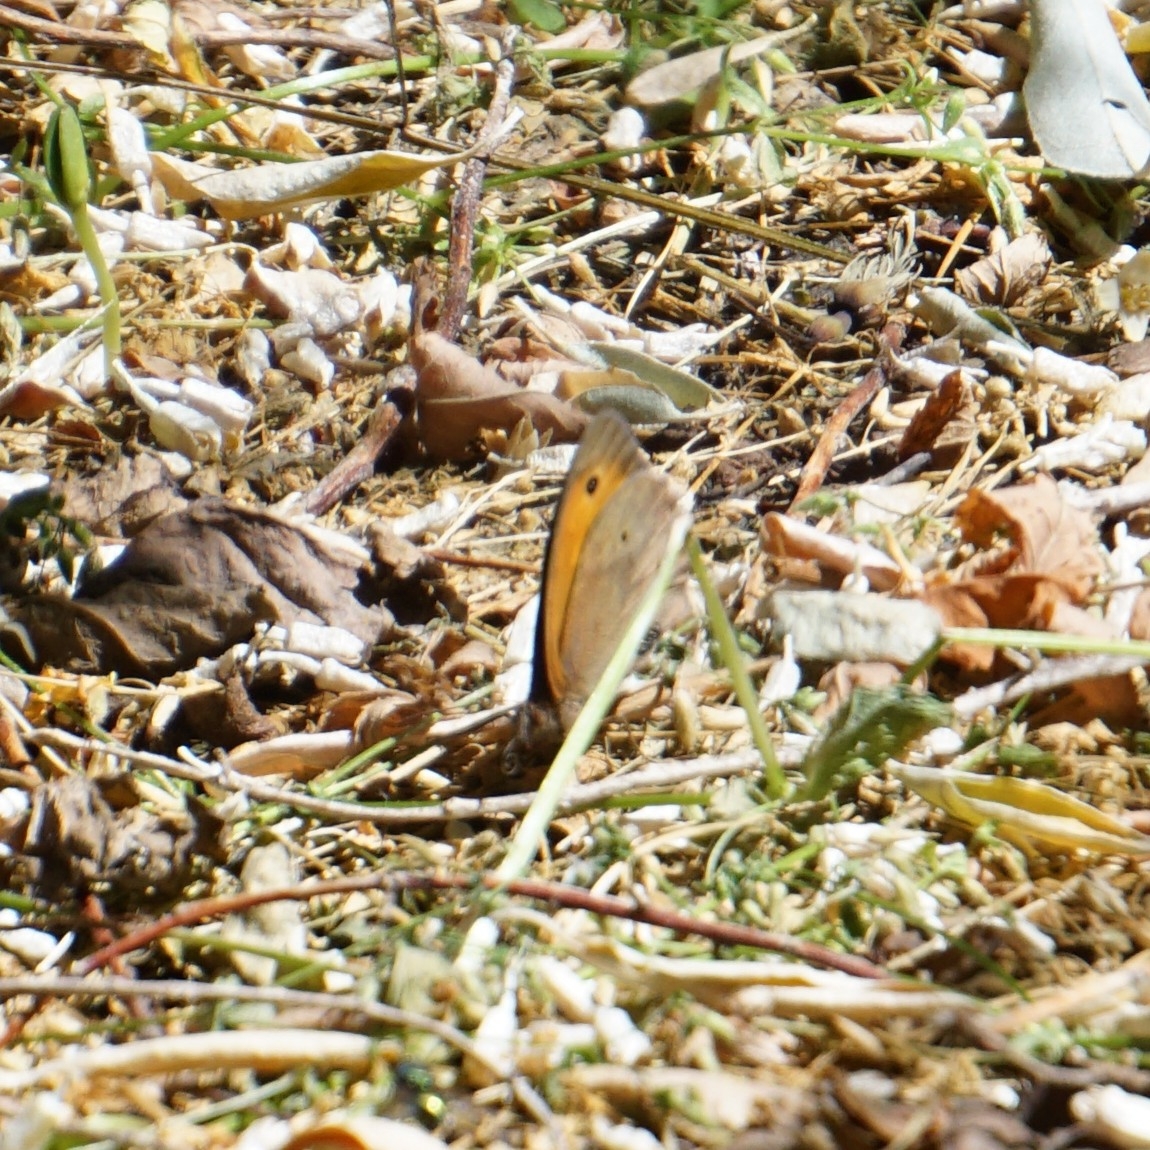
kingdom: Animalia
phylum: Arthropoda
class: Insecta
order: Lepidoptera
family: Nymphalidae
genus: Maniola
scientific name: Maniola jurtina
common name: Meadow brown
